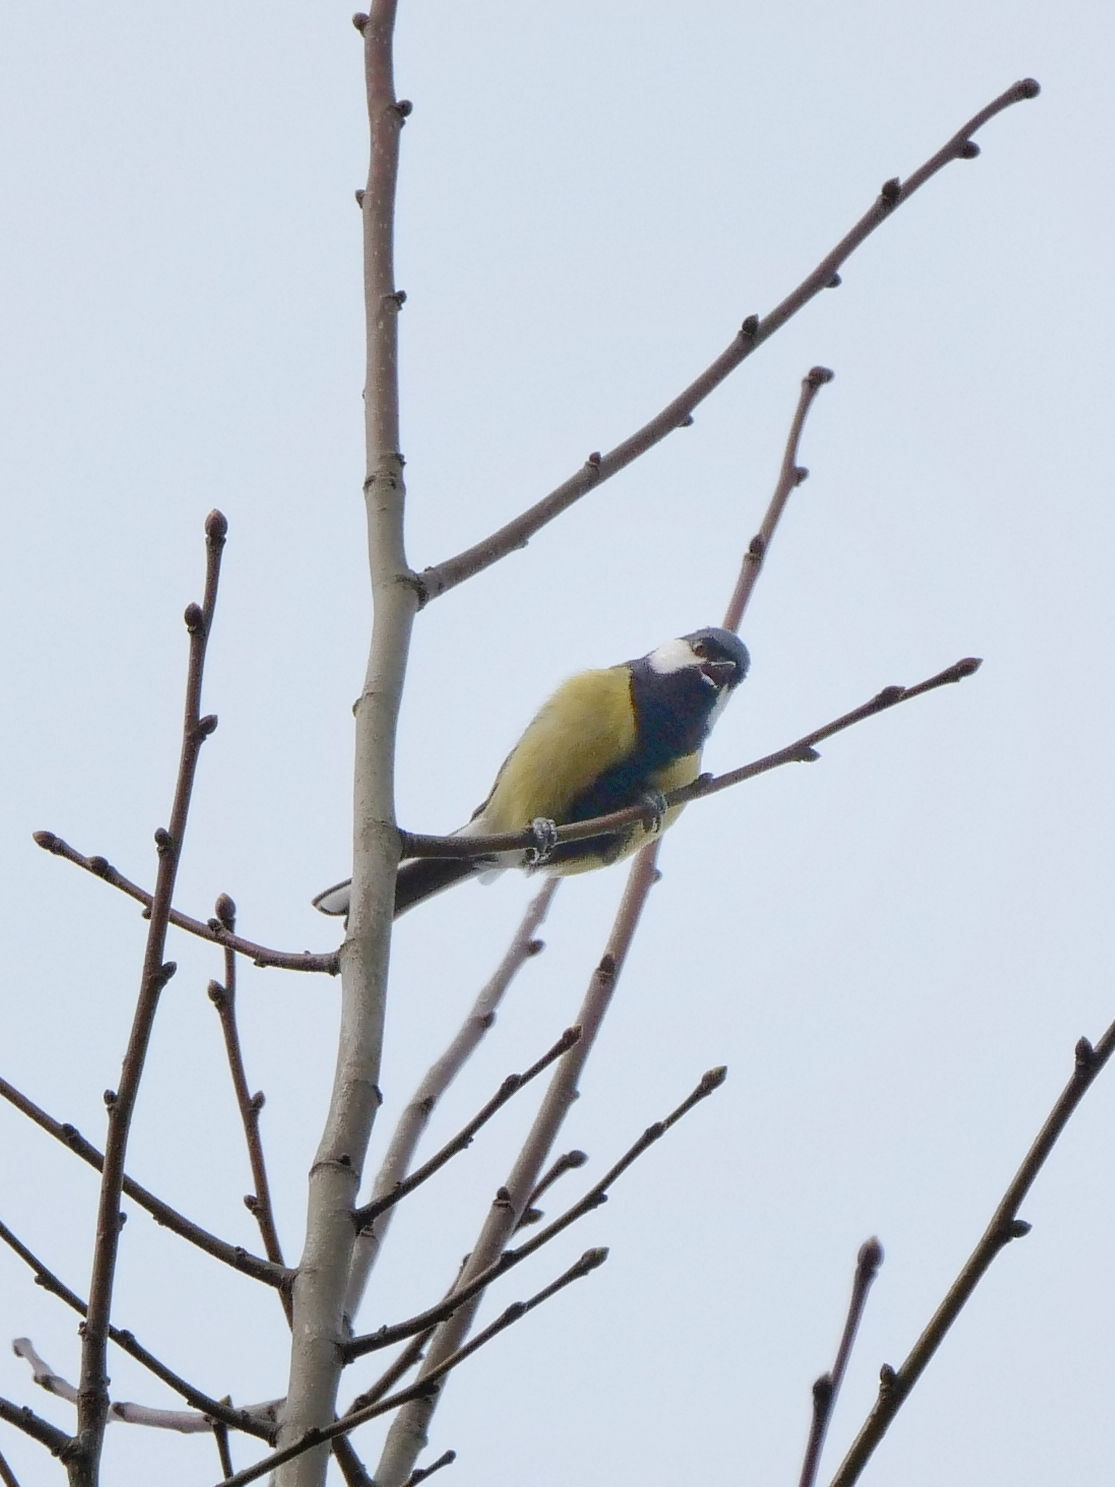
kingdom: Animalia
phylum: Chordata
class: Aves
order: Passeriformes
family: Paridae
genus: Parus
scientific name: Parus major
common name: Great tit
